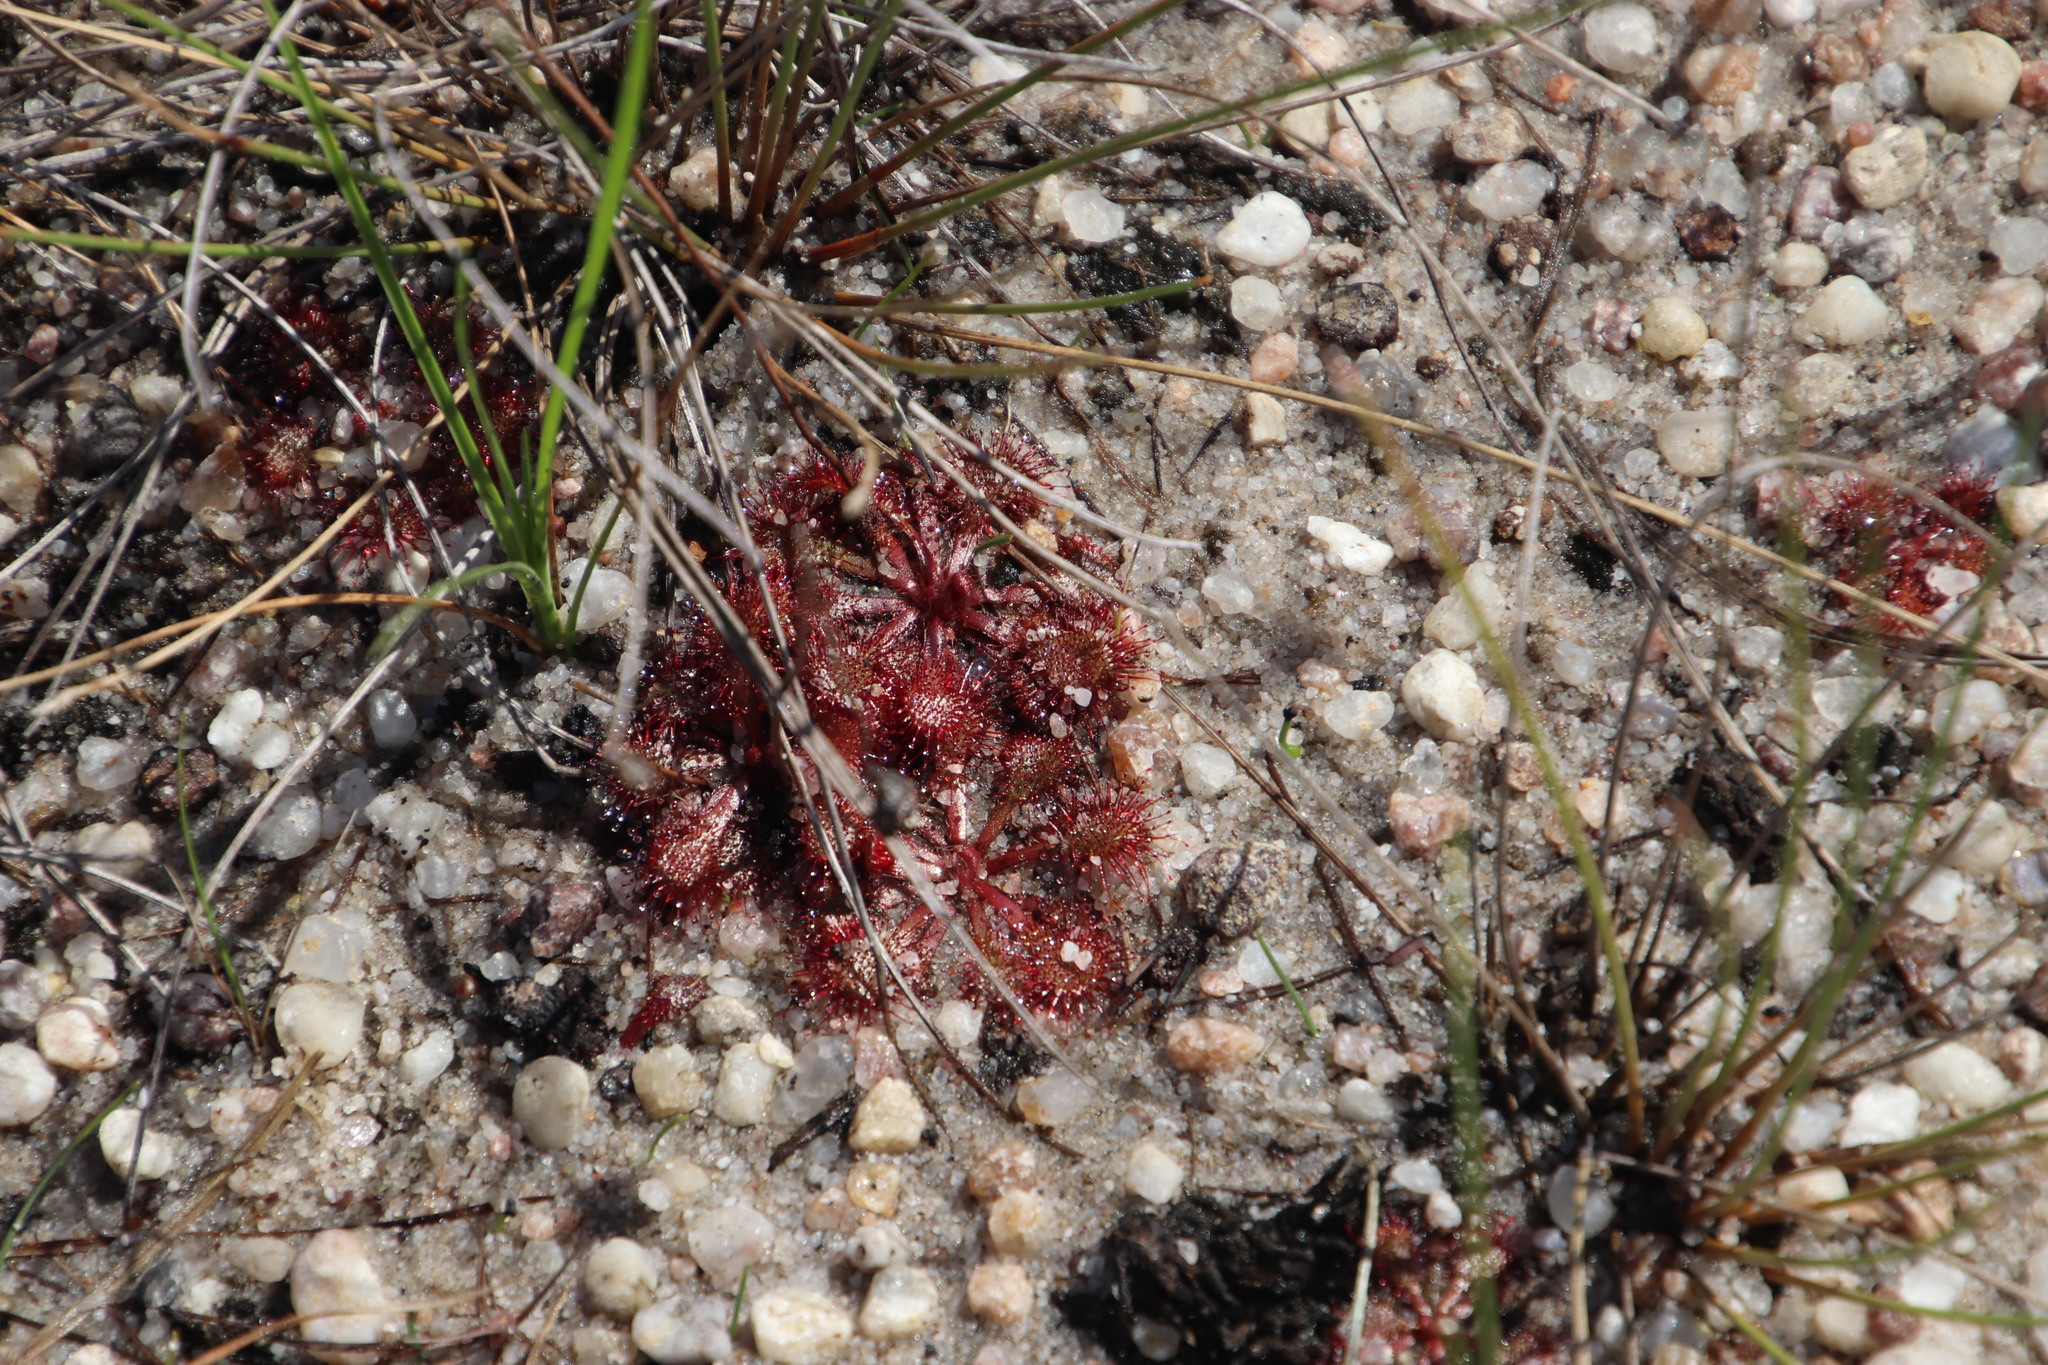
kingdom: Plantae
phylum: Tracheophyta
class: Magnoliopsida
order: Caryophyllales
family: Droseraceae
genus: Drosera
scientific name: Drosera natalensis
